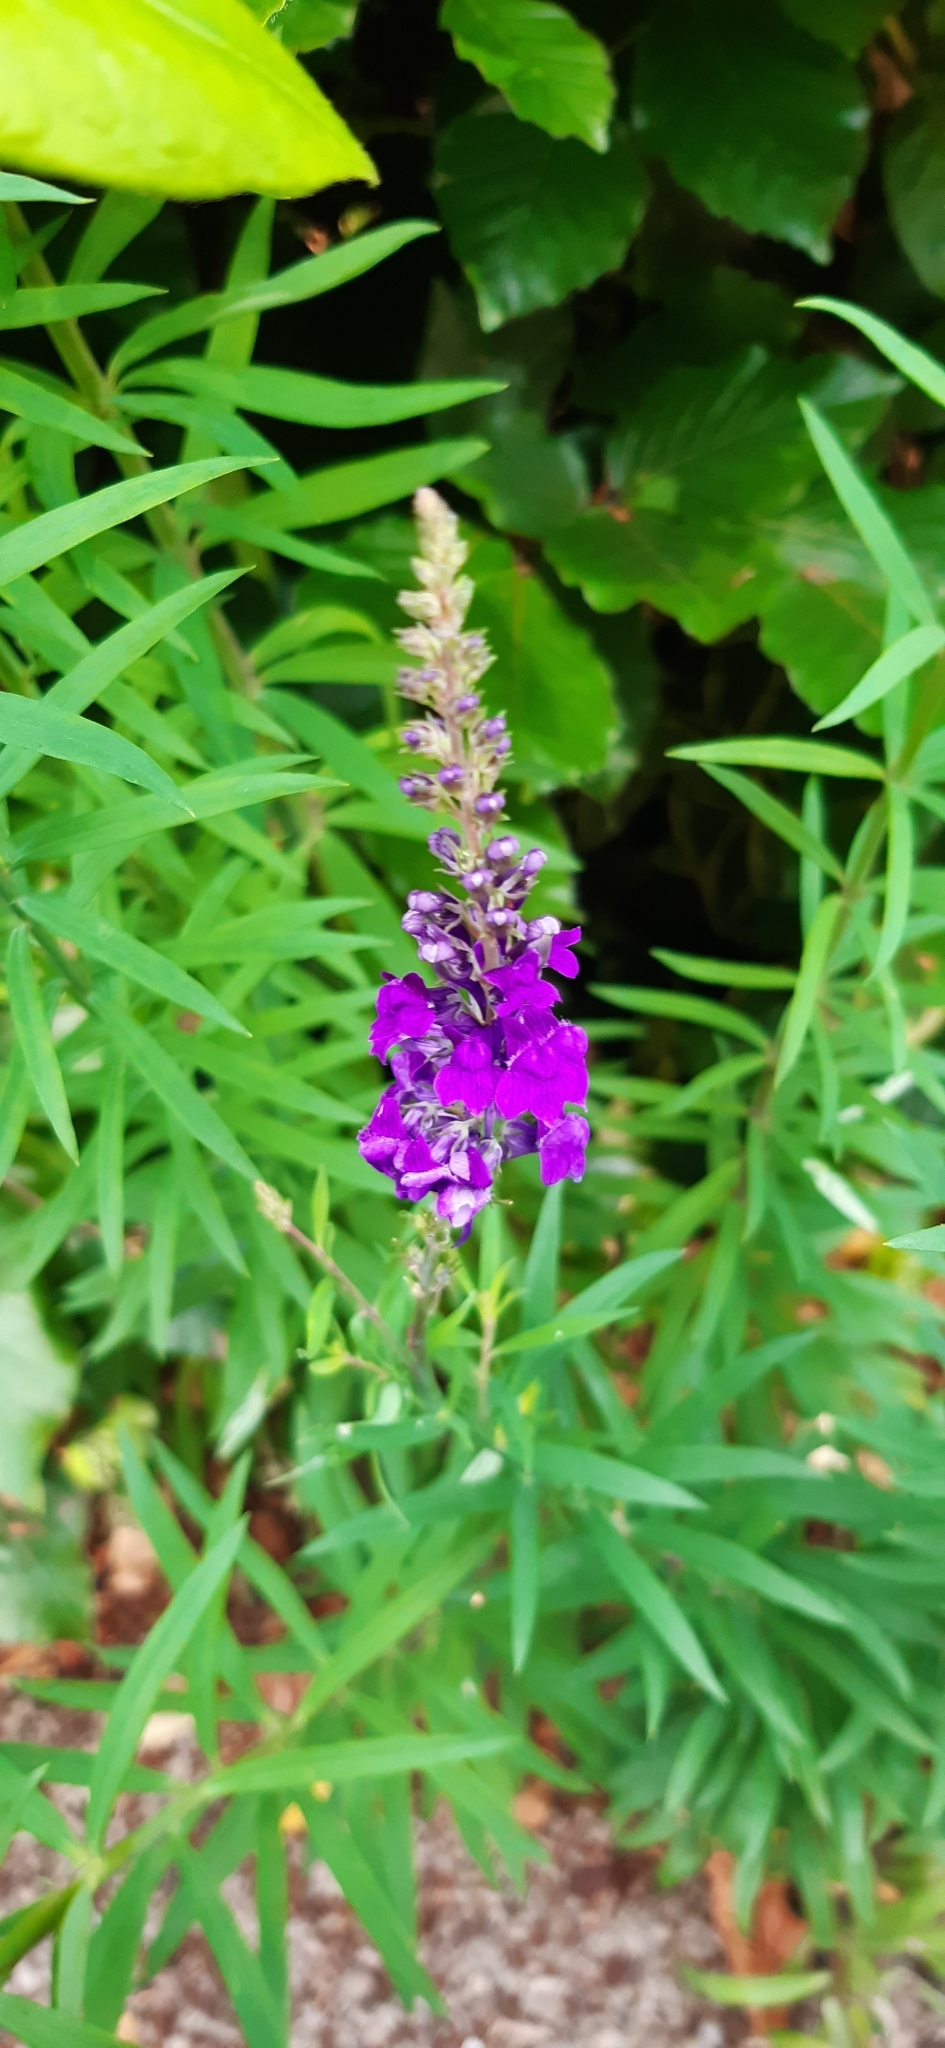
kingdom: Plantae
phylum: Tracheophyta
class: Magnoliopsida
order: Lamiales
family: Plantaginaceae
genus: Linaria
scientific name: Linaria purpurea
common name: Purple toadflax
